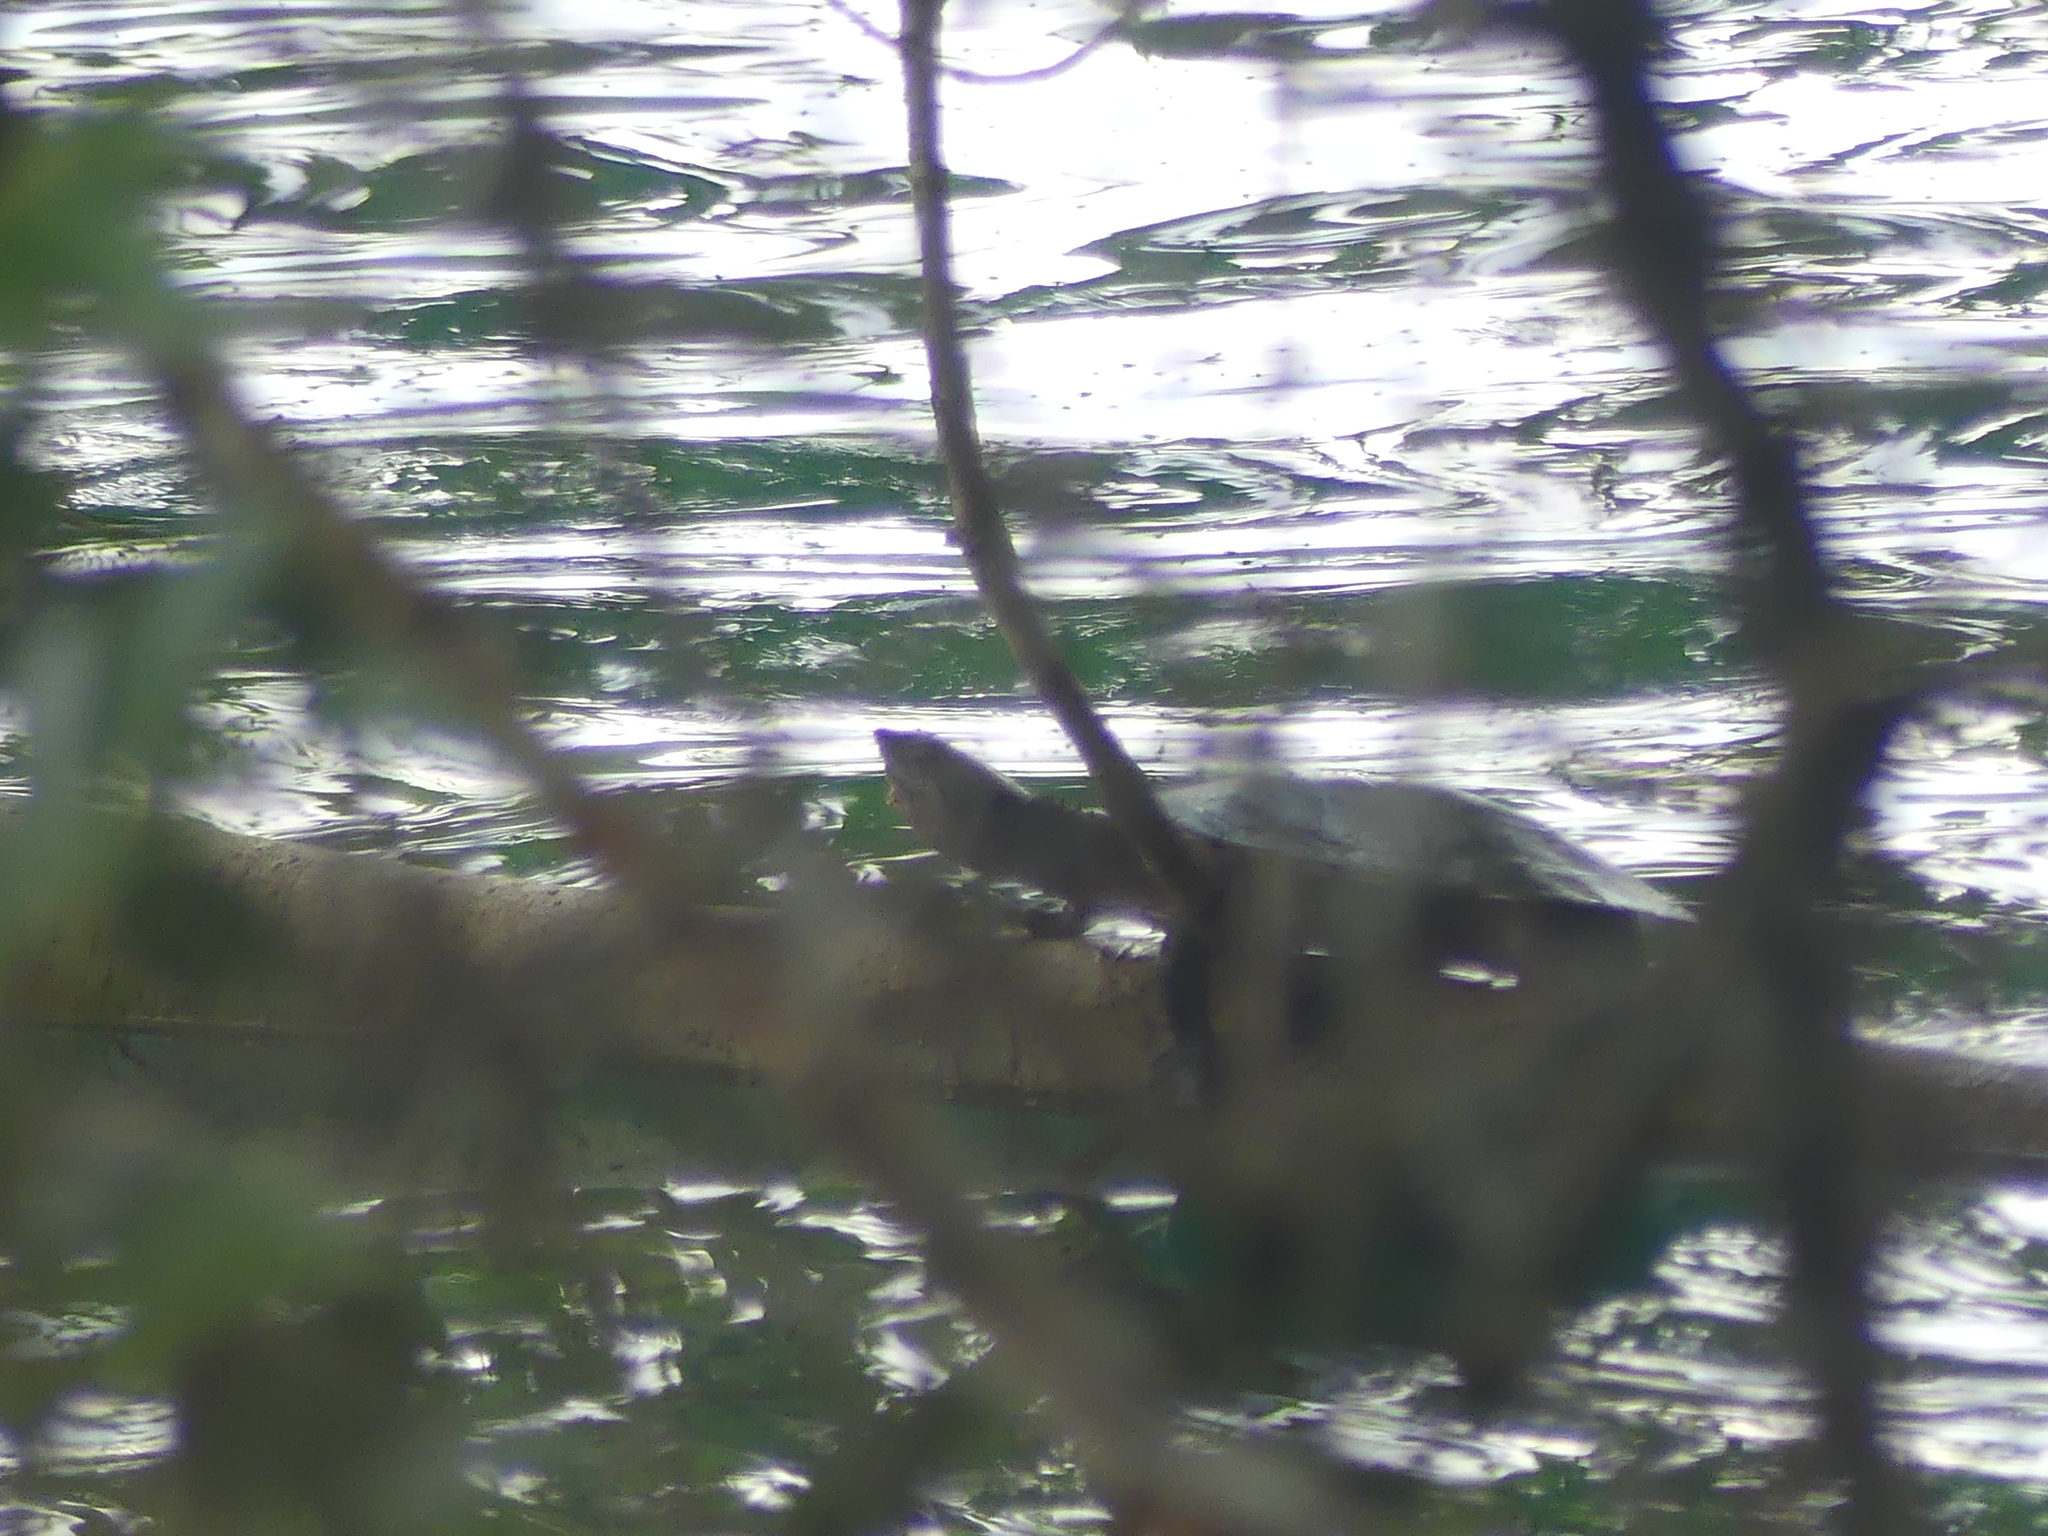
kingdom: Animalia
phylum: Chordata
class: Testudines
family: Chelidae
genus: Myuchelys
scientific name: Myuchelys latisternum
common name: Serrated snapping turtle
